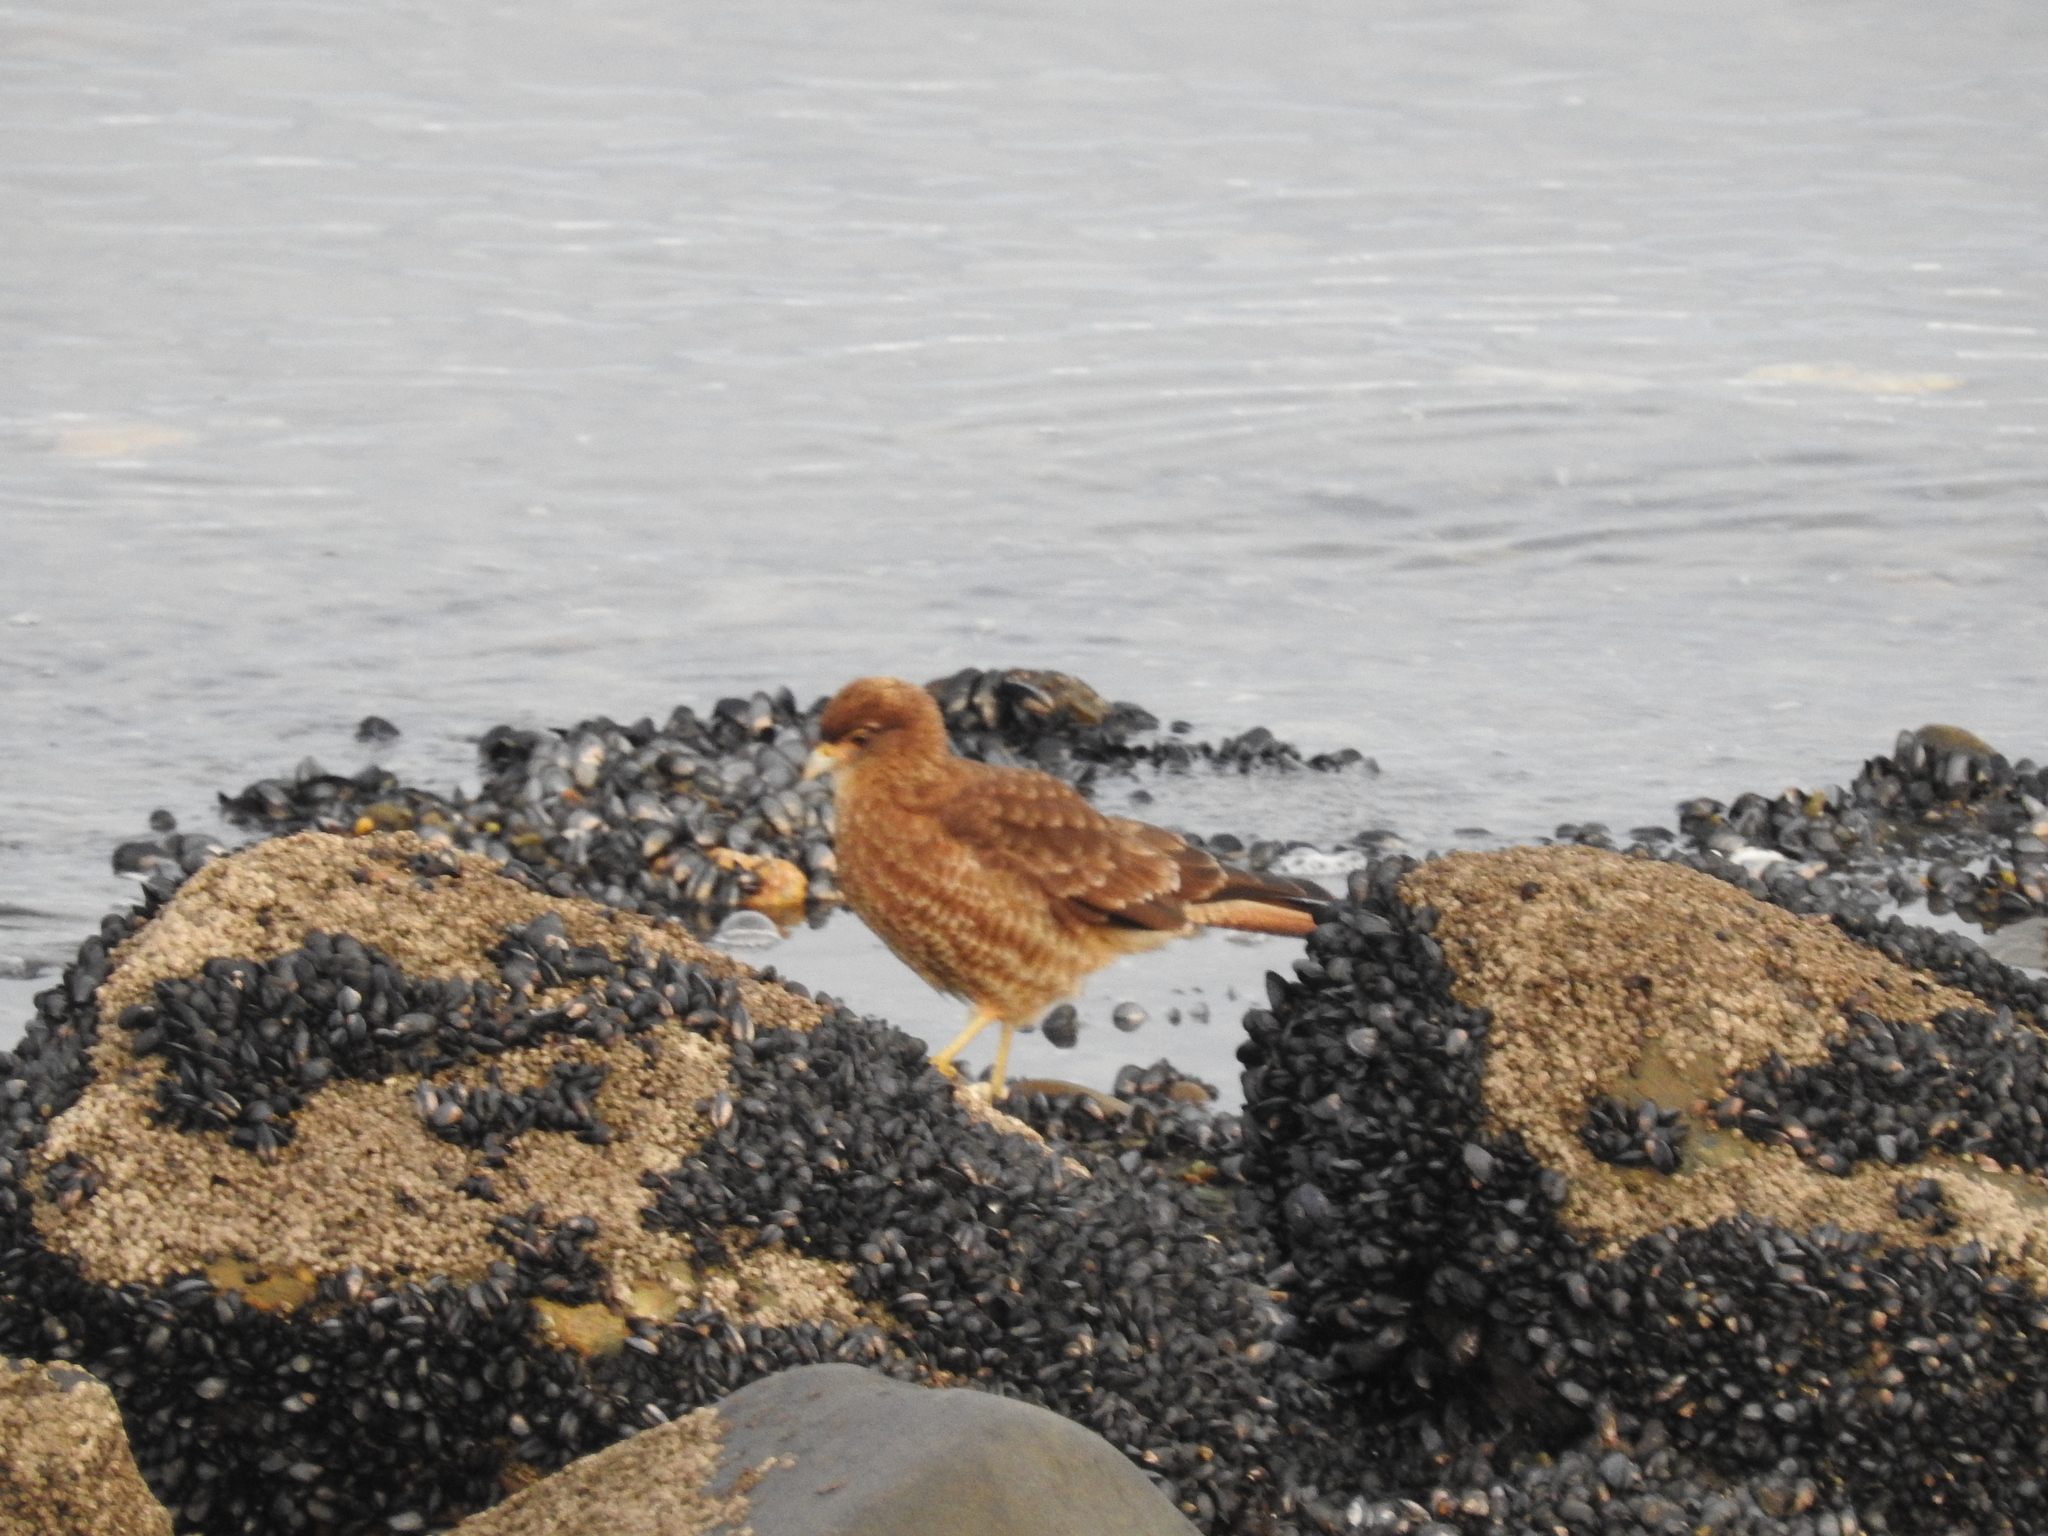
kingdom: Animalia
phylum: Chordata
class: Aves
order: Falconiformes
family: Falconidae
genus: Daptrius
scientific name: Daptrius
